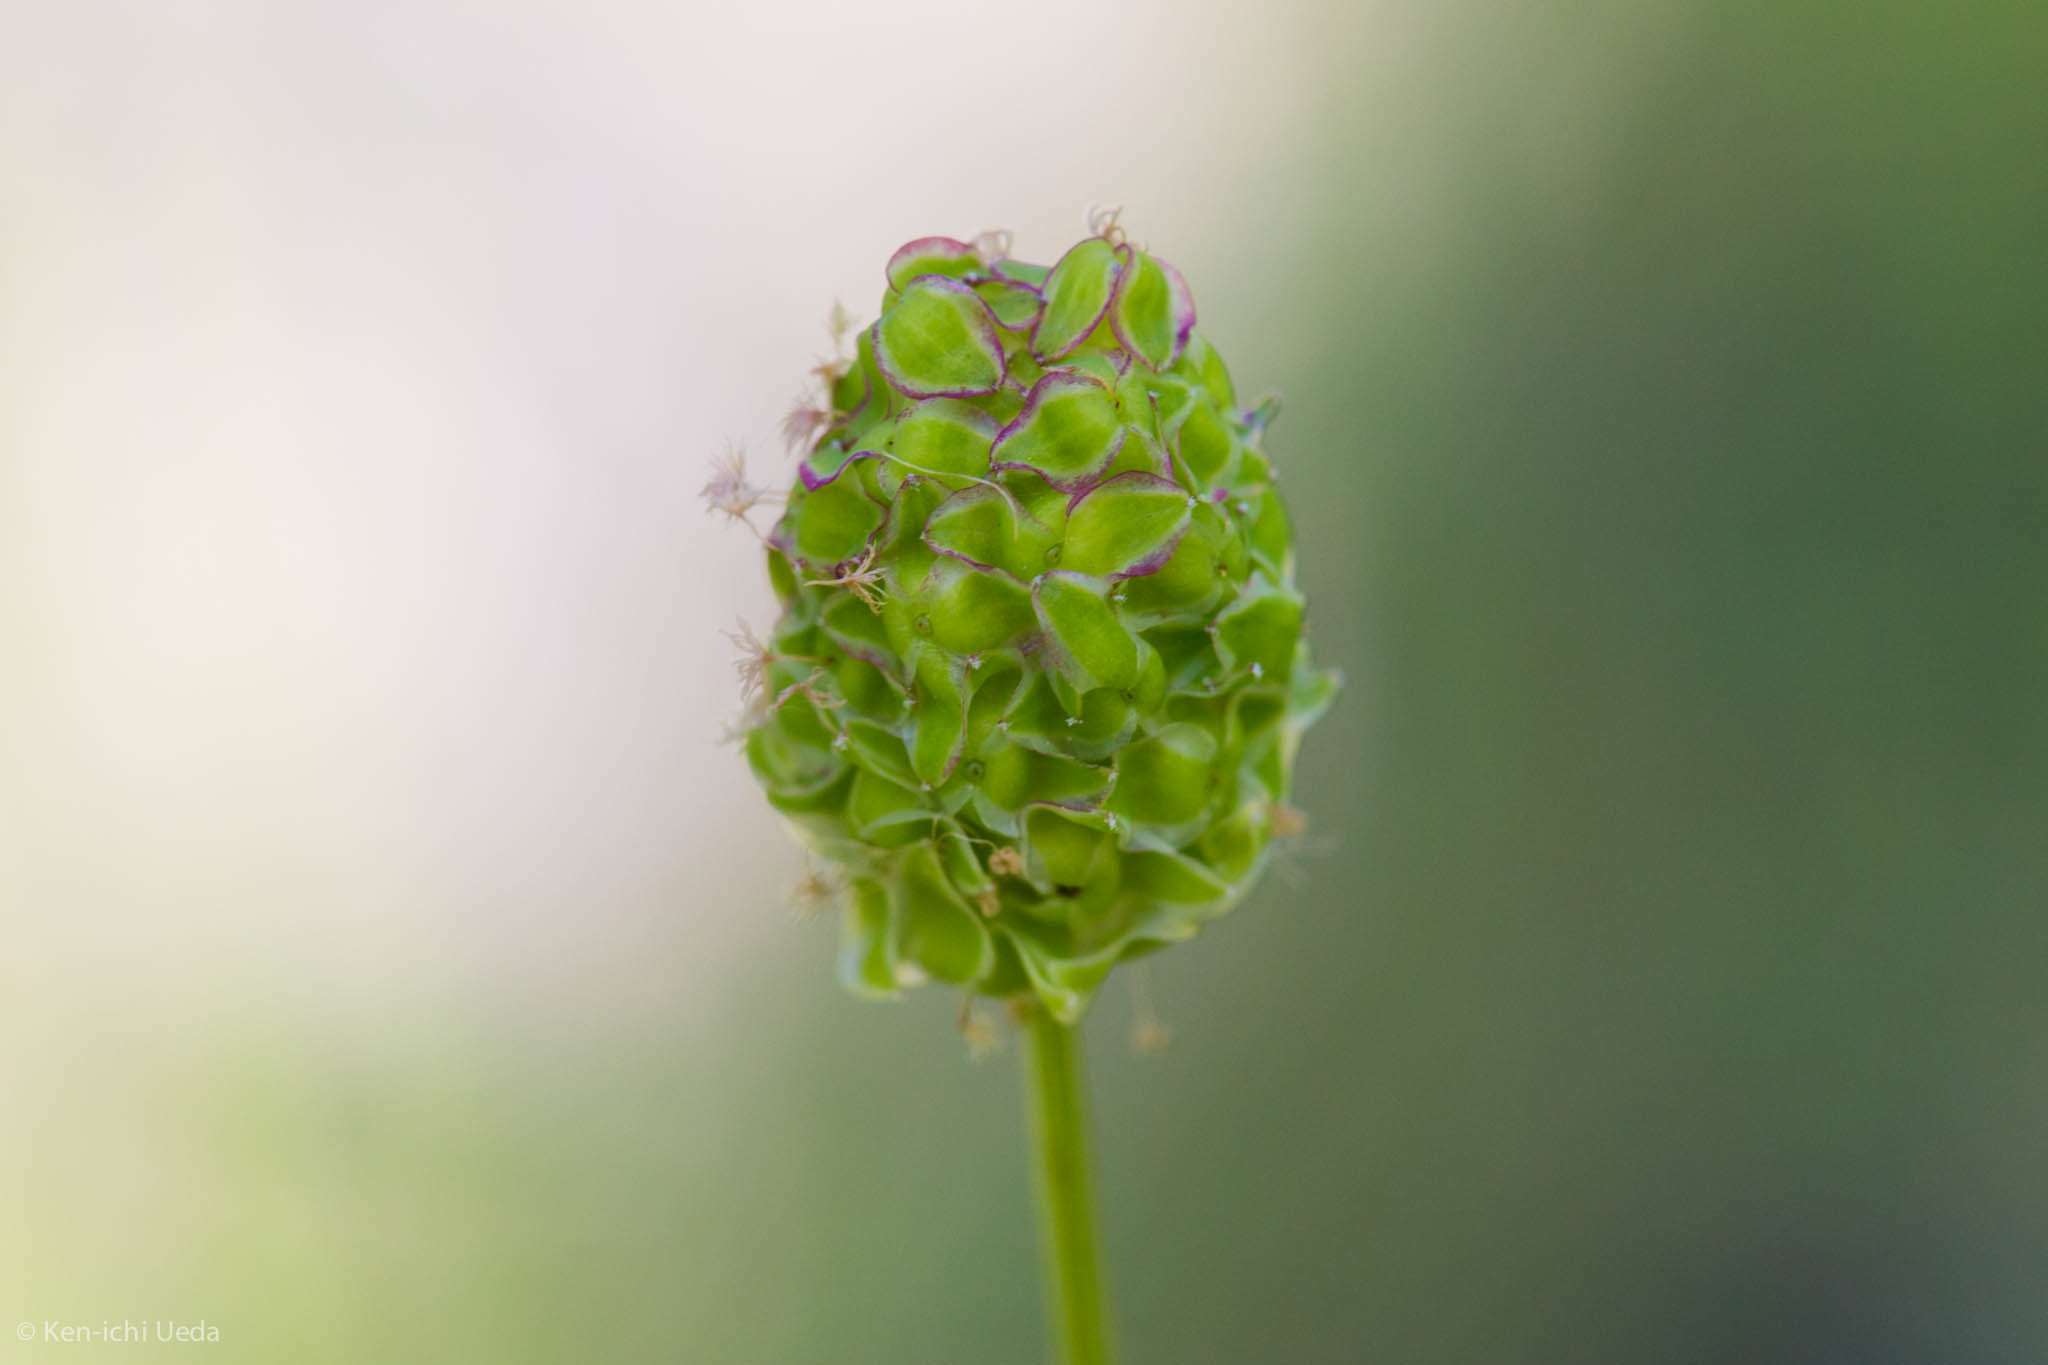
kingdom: Plantae
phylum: Tracheophyta
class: Magnoliopsida
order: Rosales
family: Rosaceae
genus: Poterium
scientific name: Poterium sanguisorba
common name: Salad burnet
